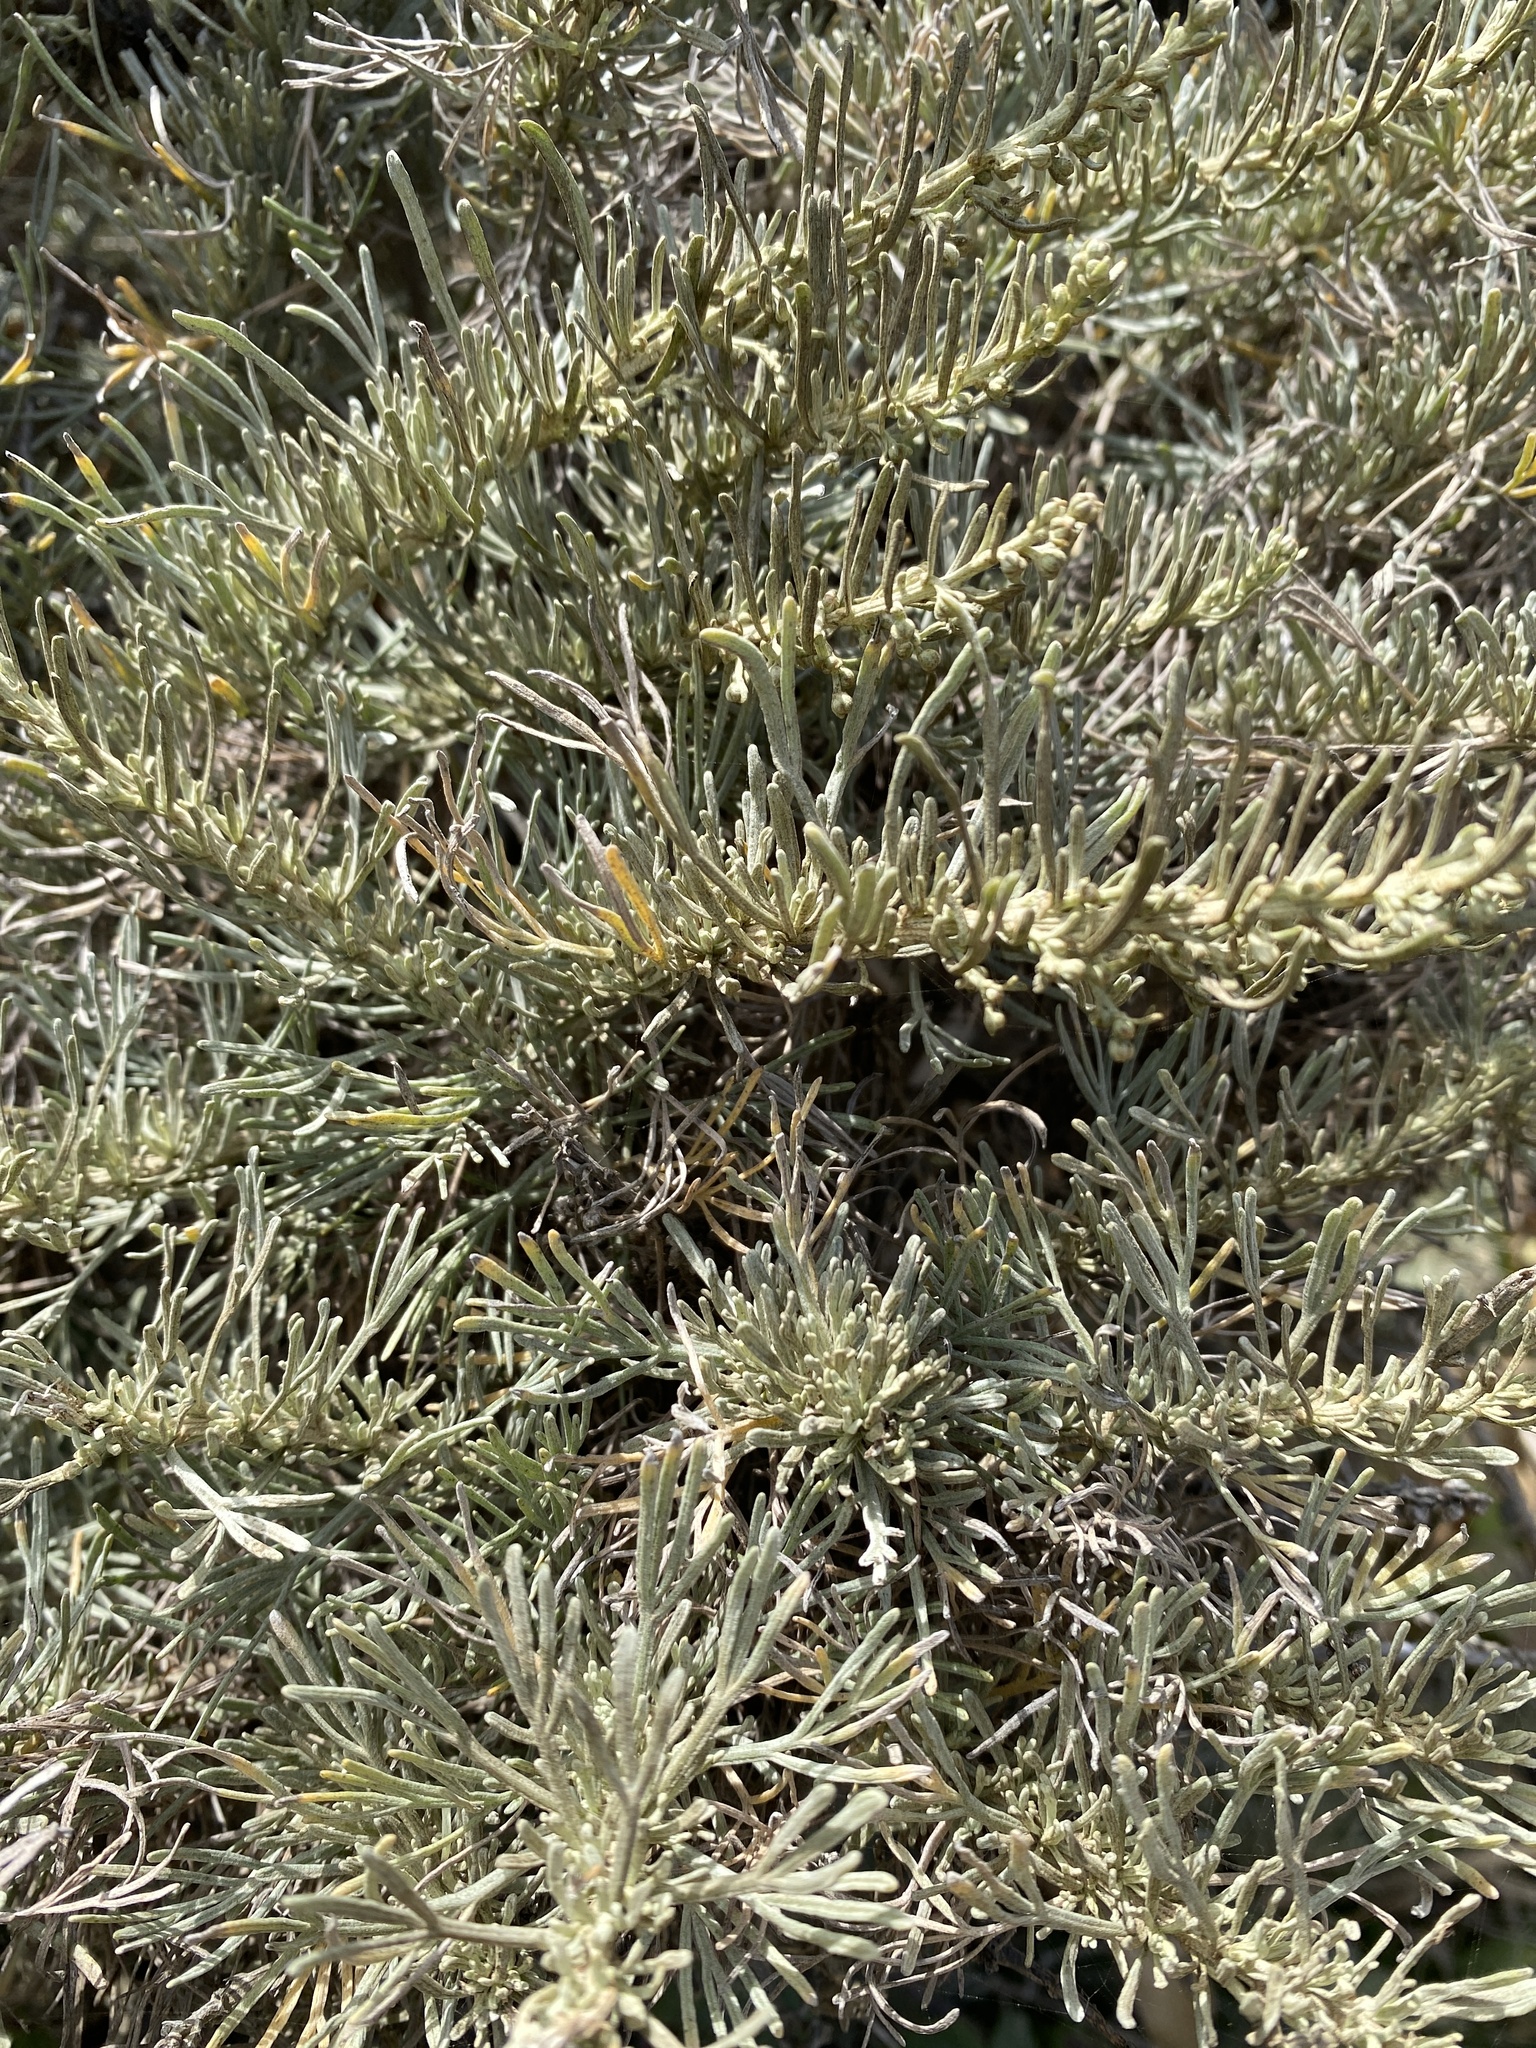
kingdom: Plantae
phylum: Tracheophyta
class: Magnoliopsida
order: Asterales
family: Asteraceae
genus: Artemisia
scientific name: Artemisia californica
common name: California sagebrush
